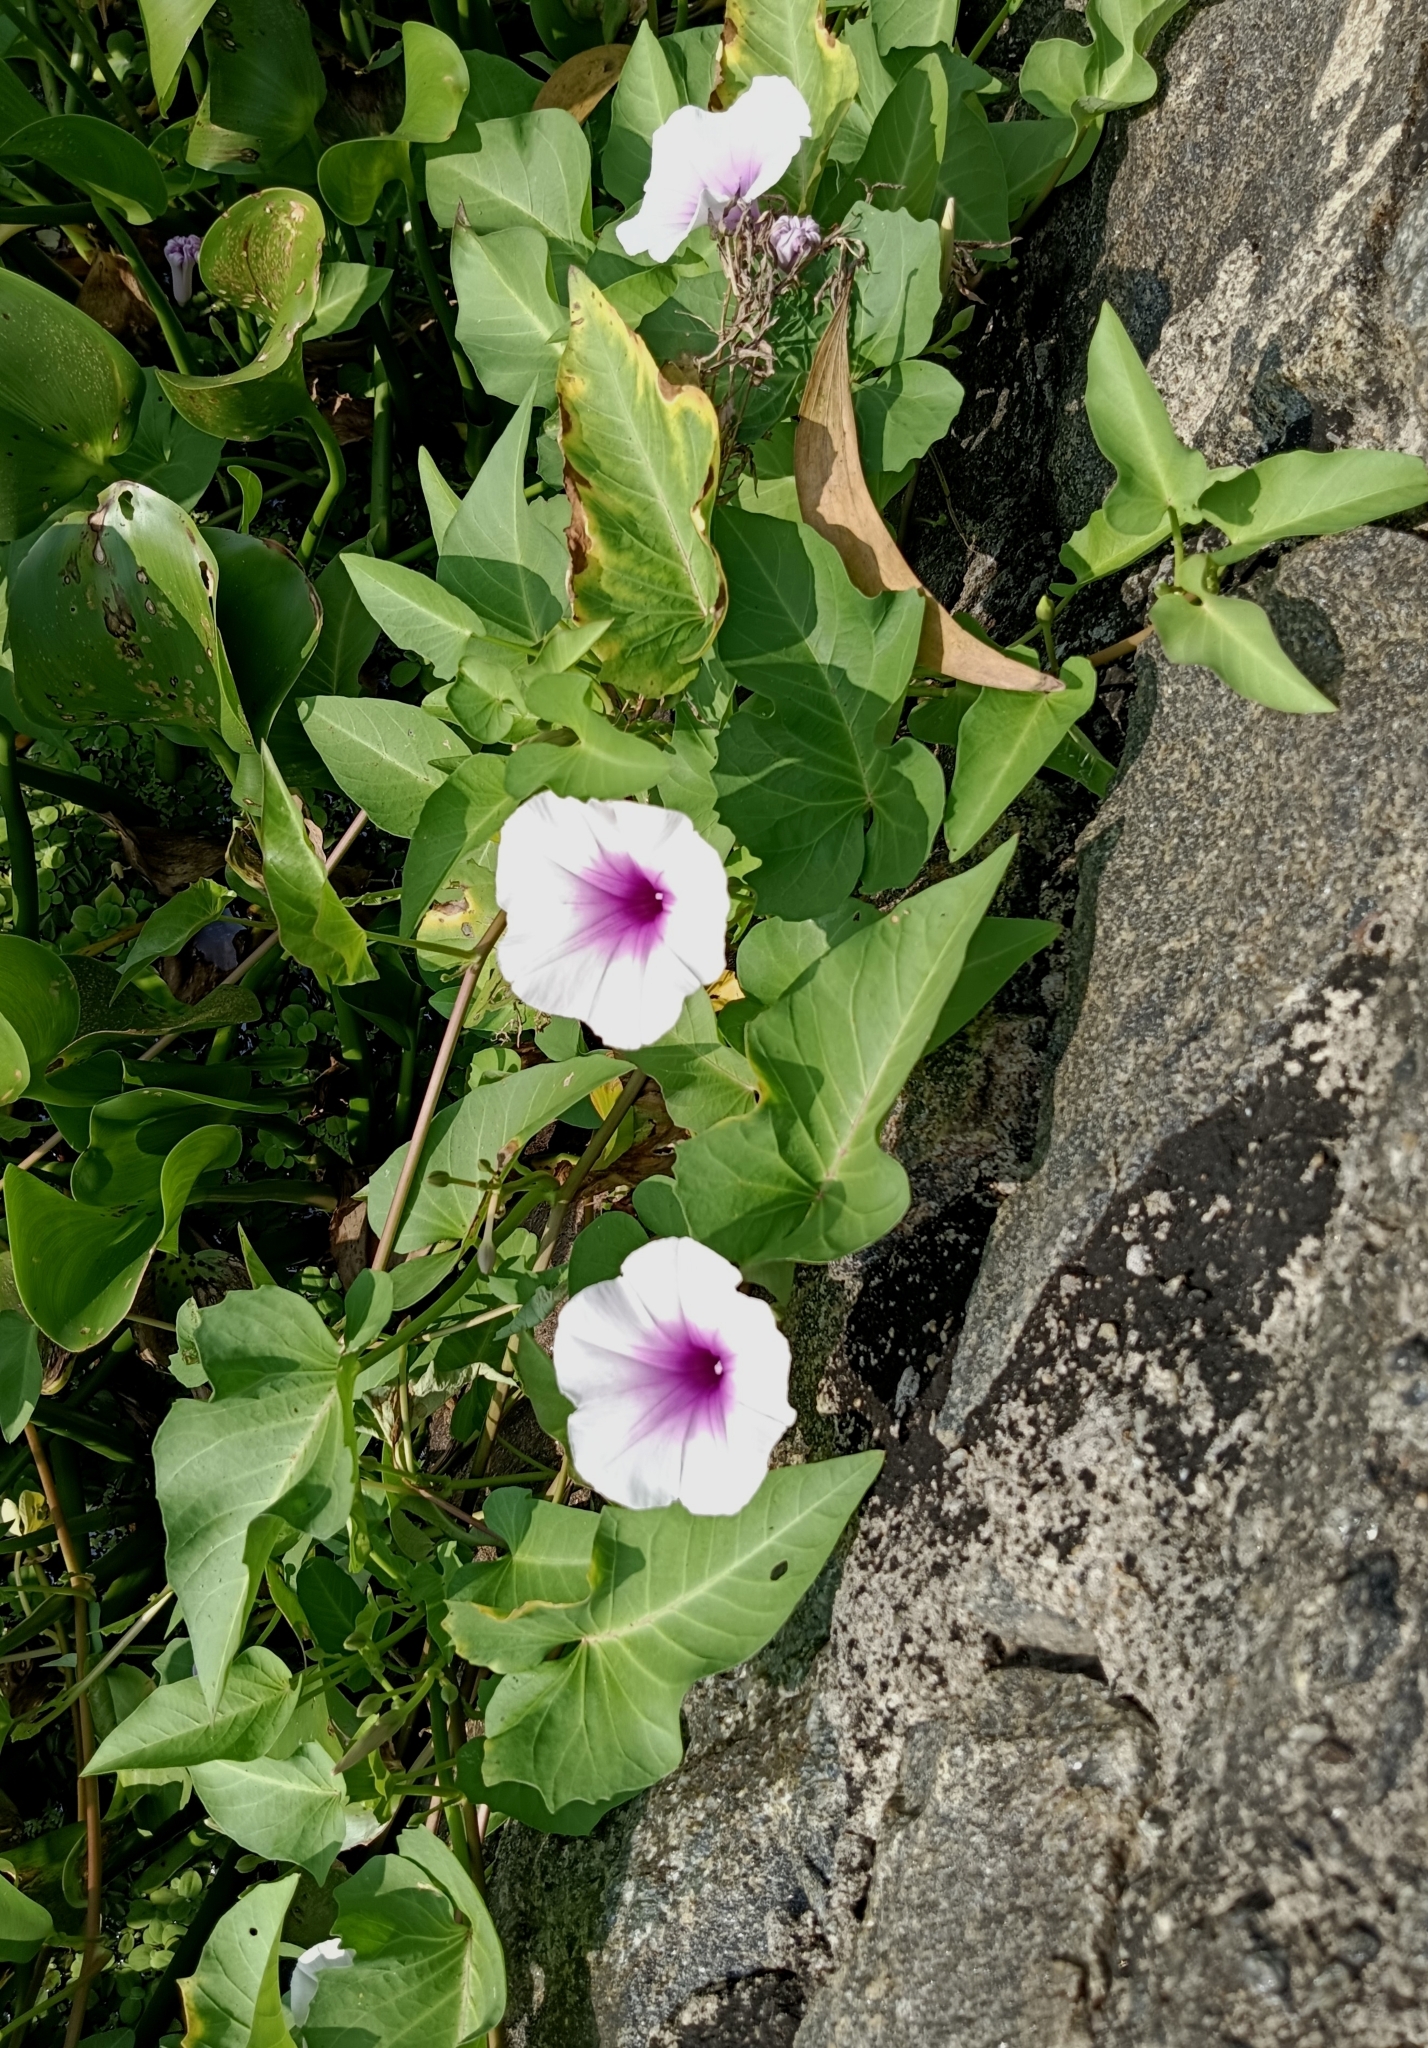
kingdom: Plantae
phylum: Tracheophyta
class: Magnoliopsida
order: Solanales
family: Convolvulaceae
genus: Ipomoea
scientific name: Ipomoea aquatica
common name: Swamp morning-glory
